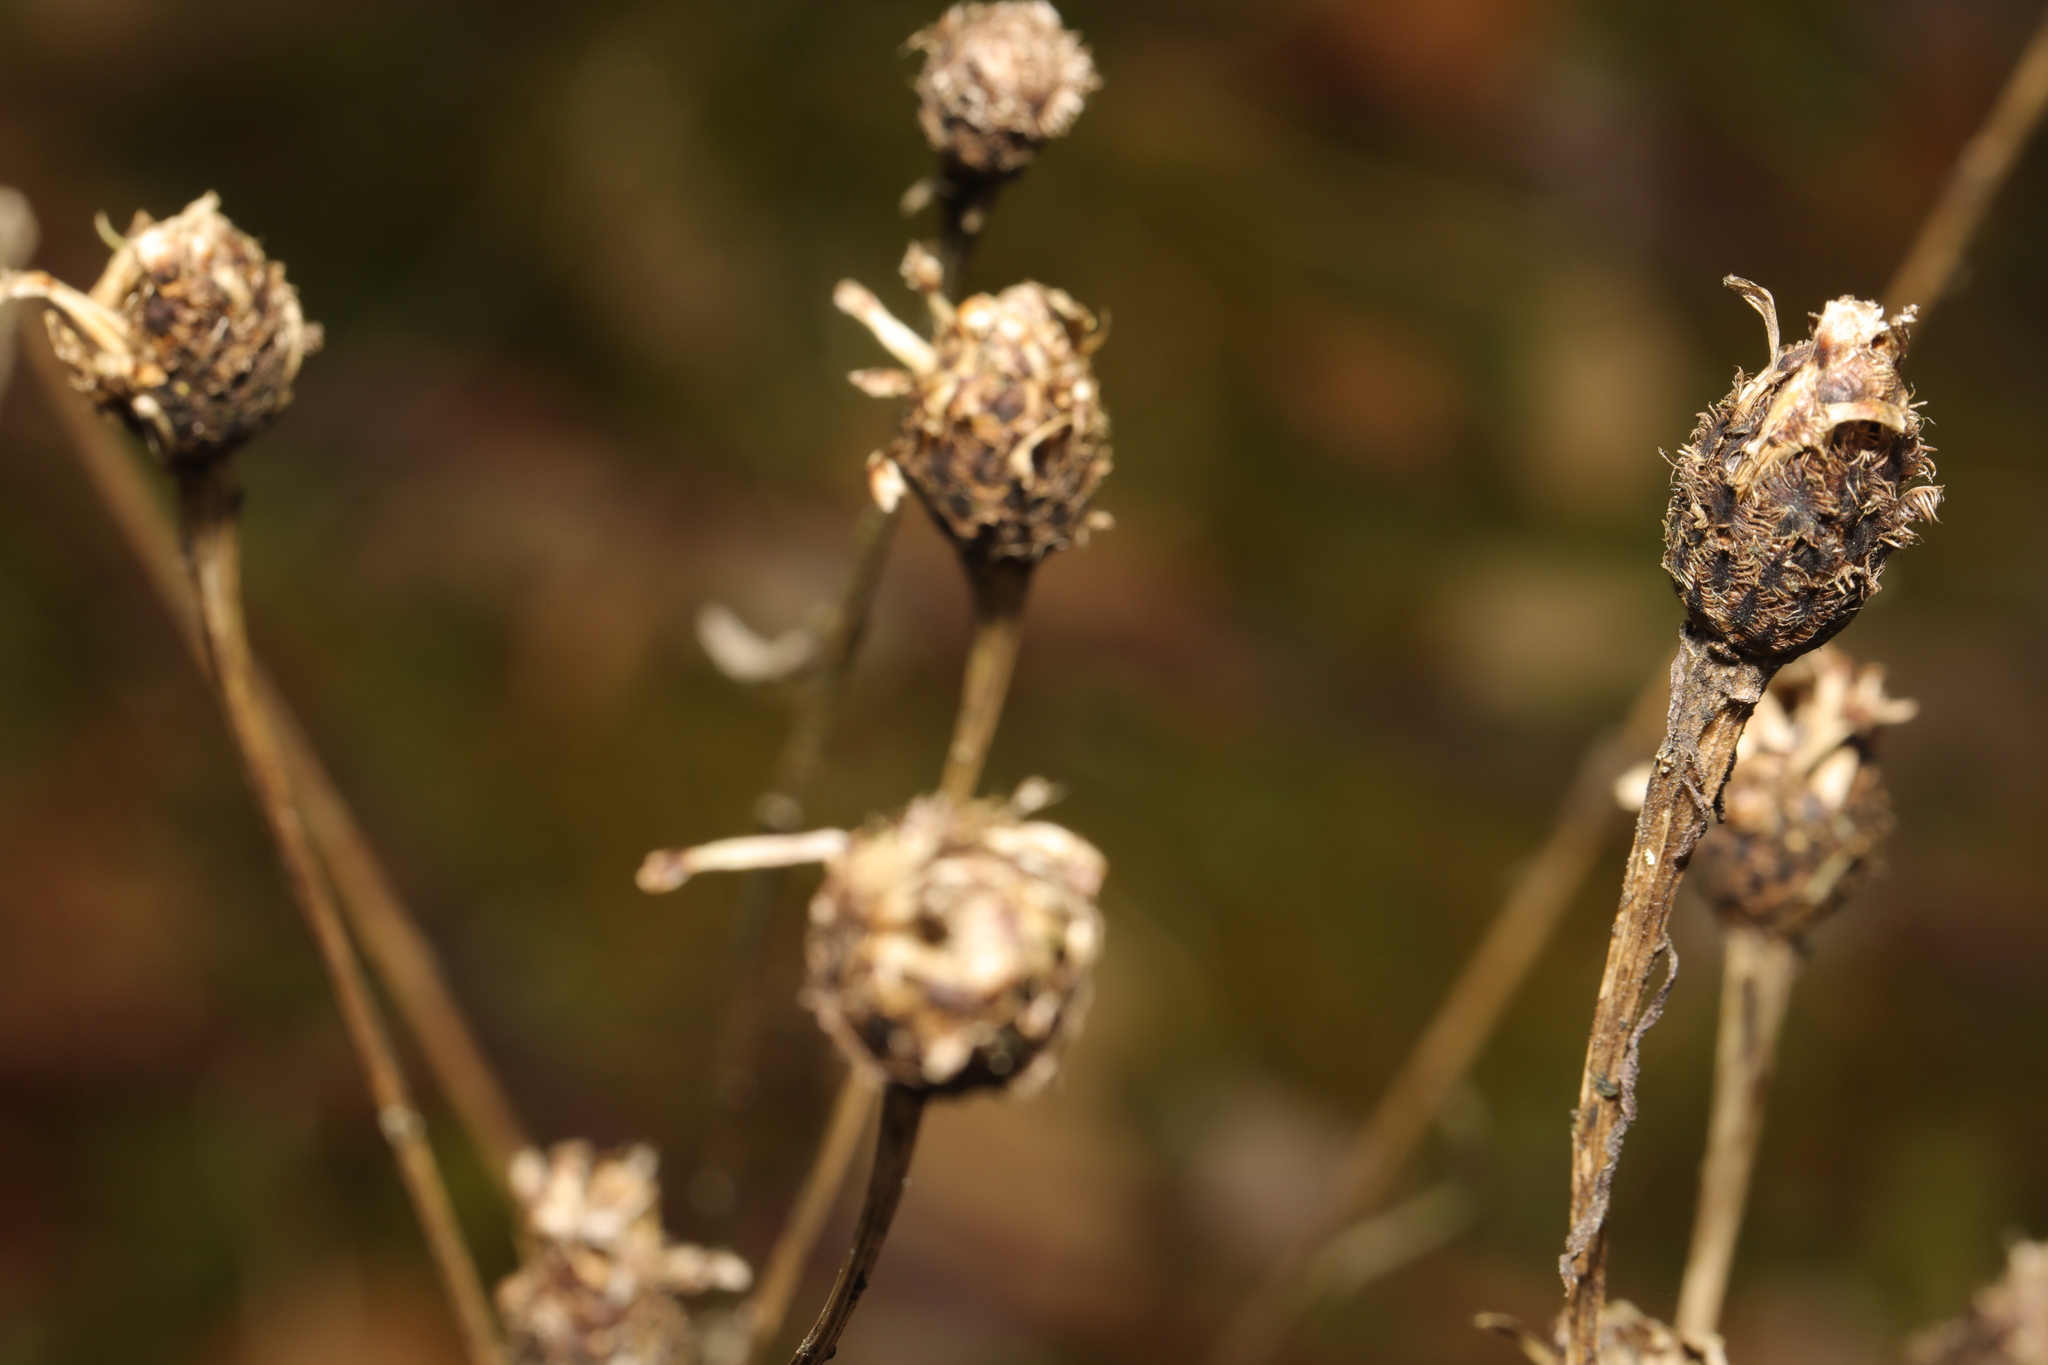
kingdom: Plantae
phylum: Tracheophyta
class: Magnoliopsida
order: Asterales
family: Asteraceae
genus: Centaurea
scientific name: Centaurea nigra
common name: Lesser knapweed
